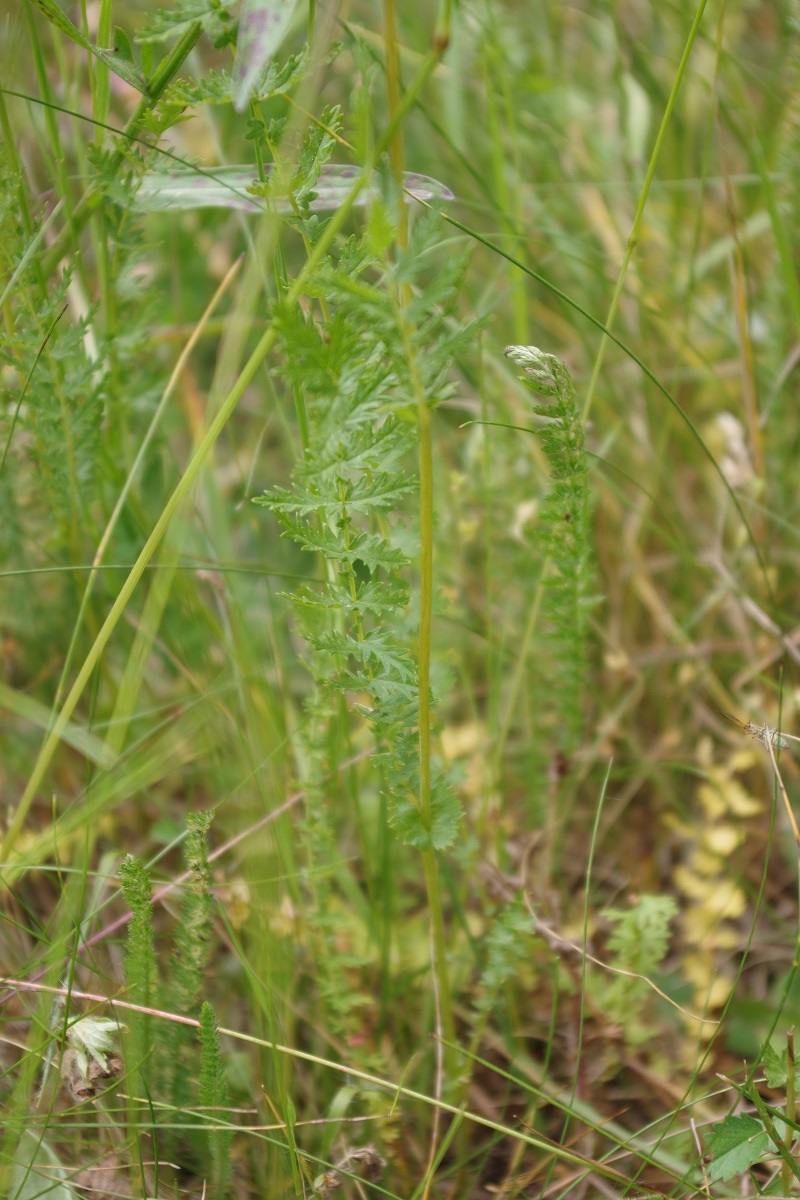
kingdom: Plantae
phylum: Tracheophyta
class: Magnoliopsida
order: Rosales
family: Rosaceae
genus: Filipendula
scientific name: Filipendula vulgaris
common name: Dropwort
